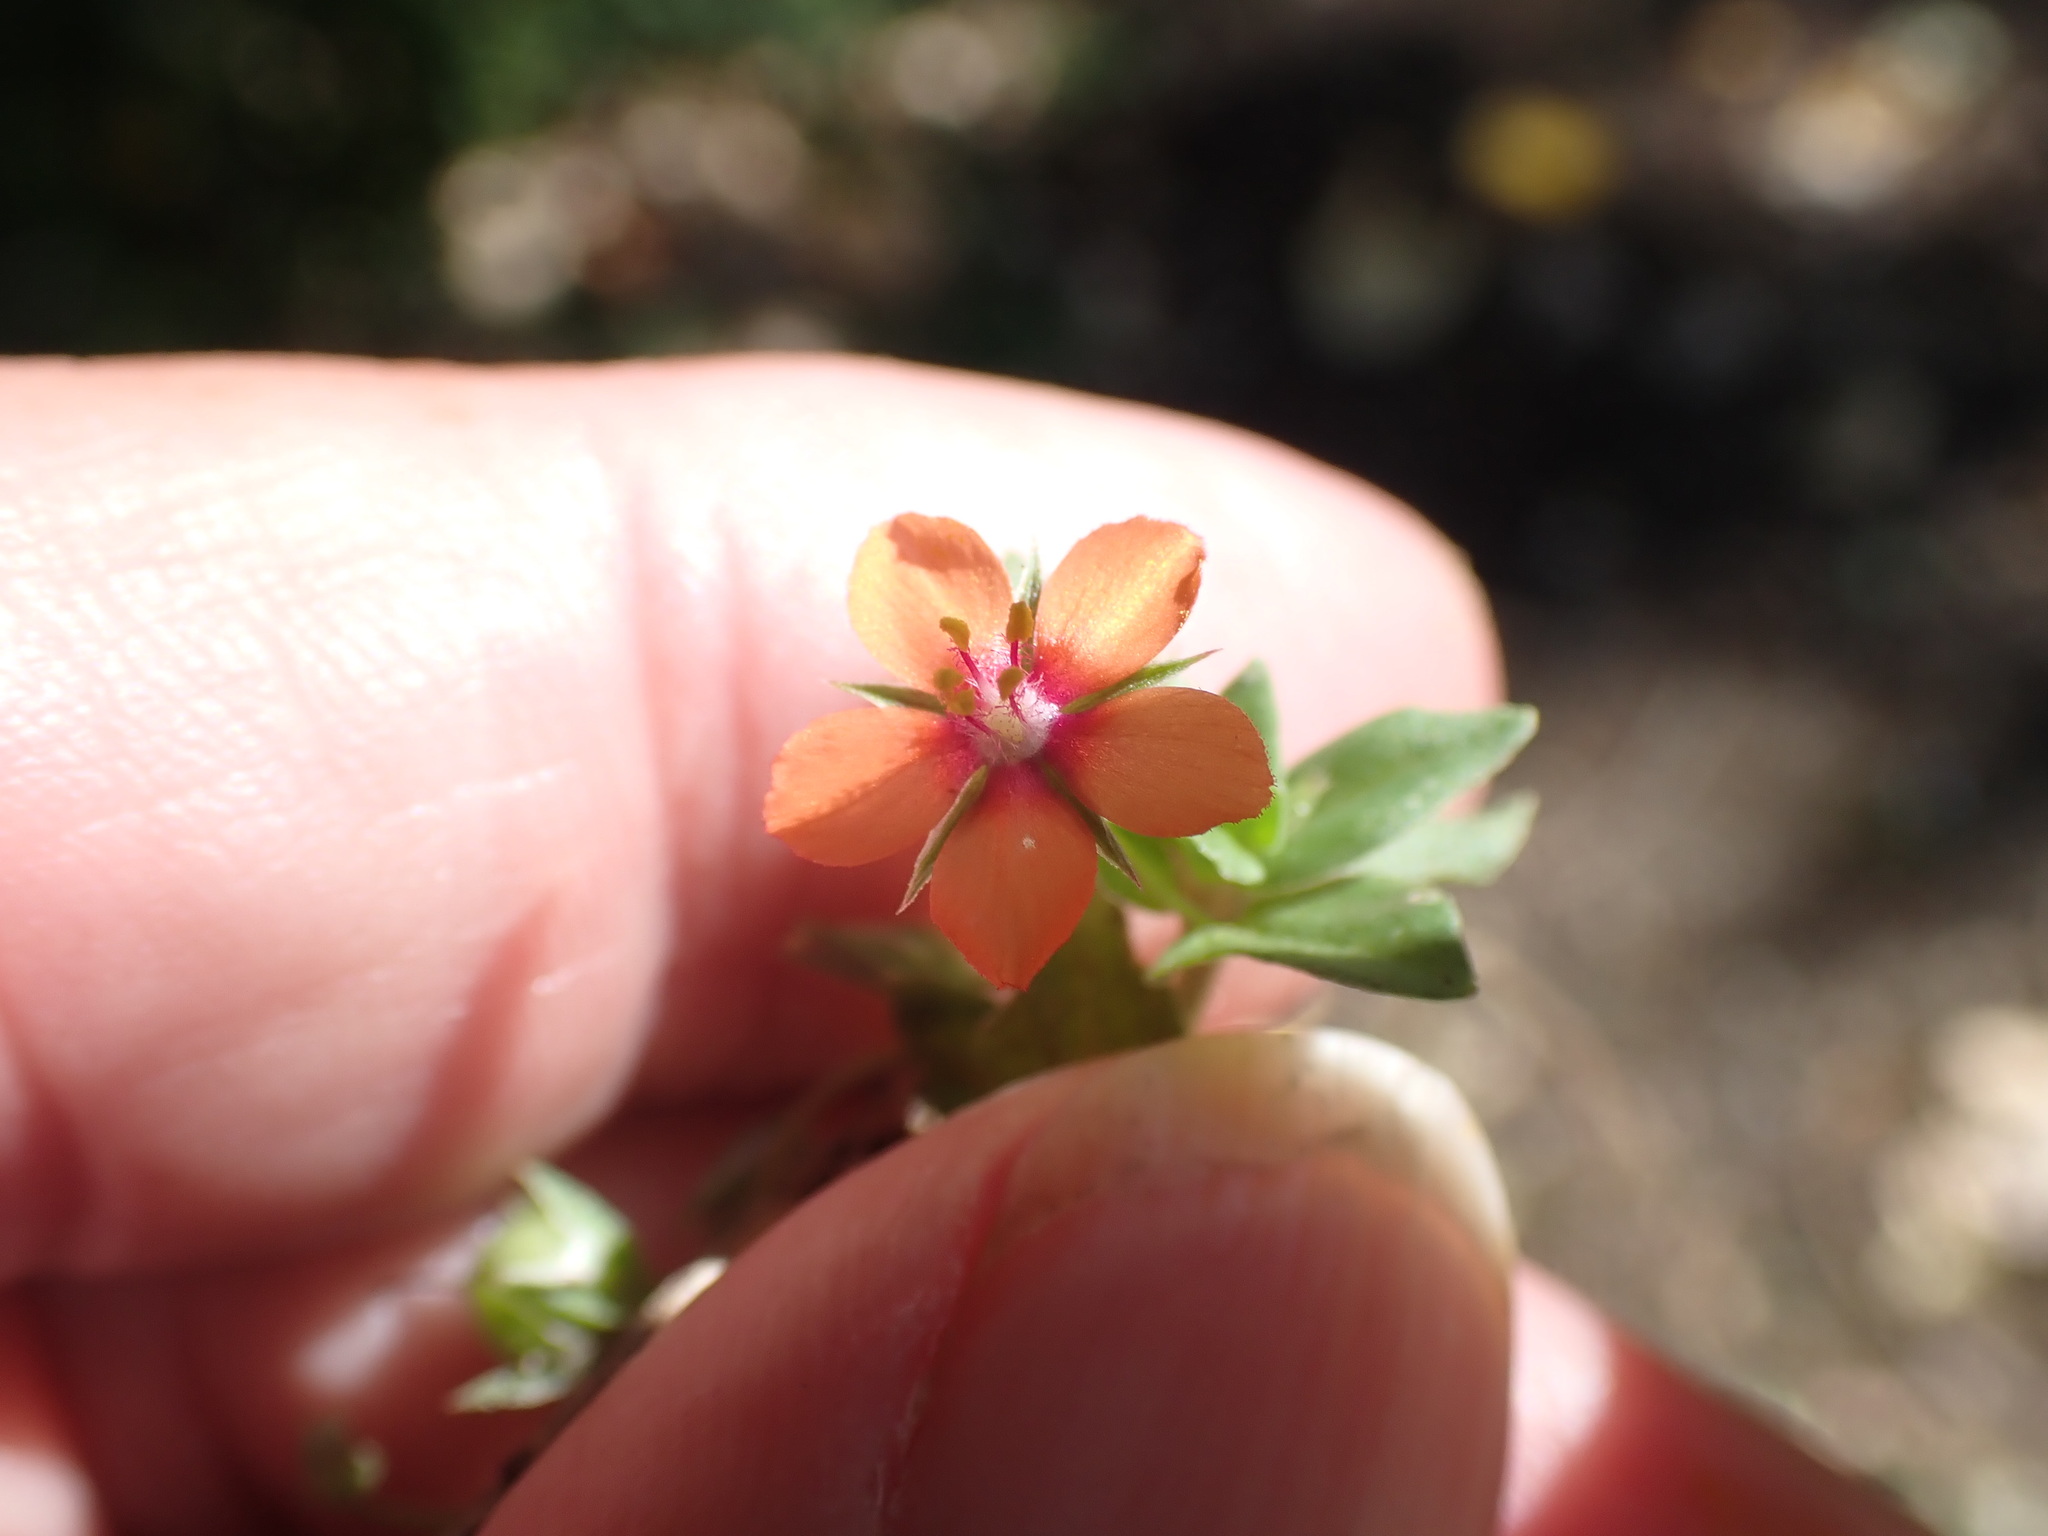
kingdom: Plantae
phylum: Tracheophyta
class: Magnoliopsida
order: Ericales
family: Primulaceae
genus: Lysimachia
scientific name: Lysimachia arvensis
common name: Scarlet pimpernel
